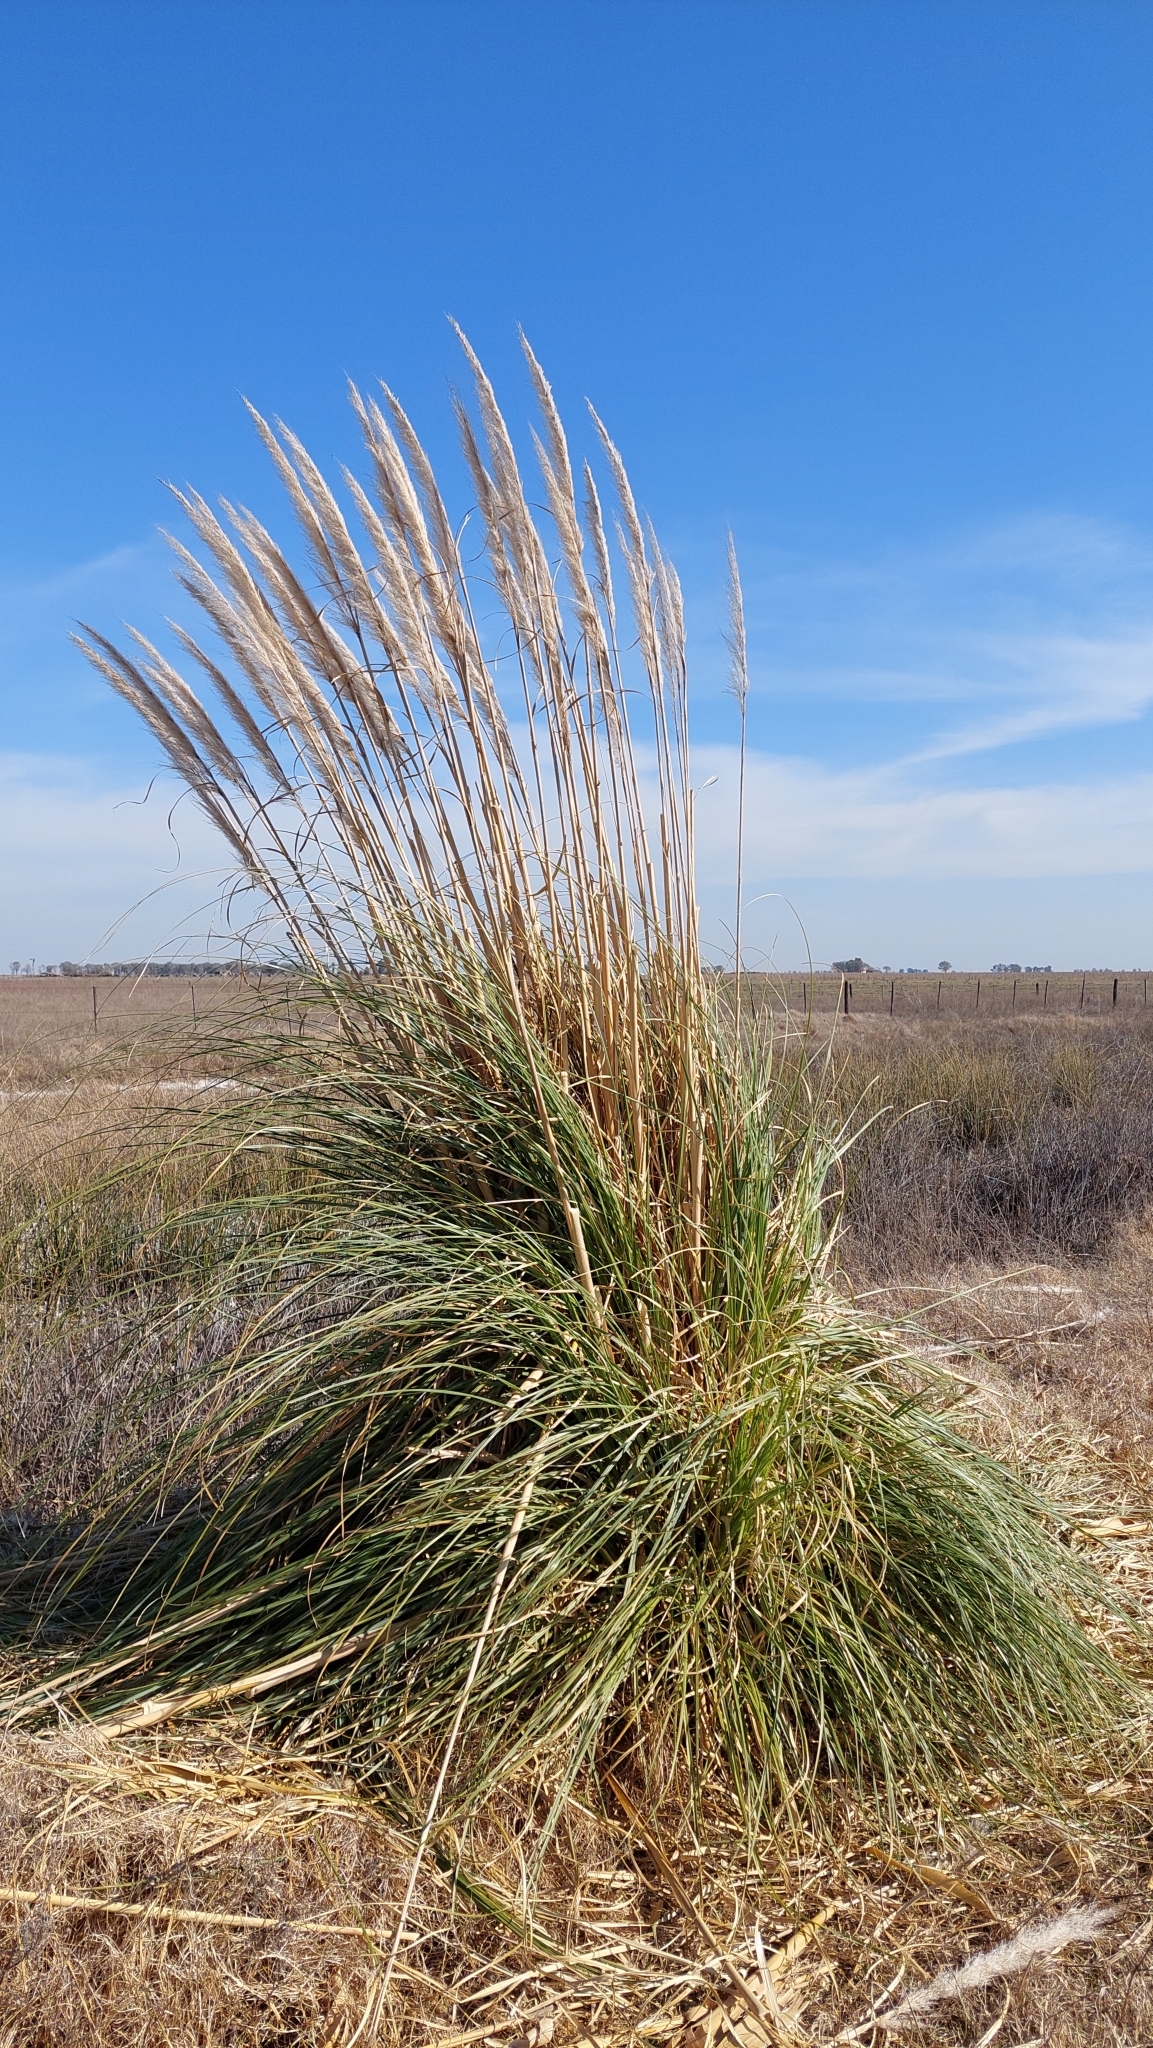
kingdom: Plantae
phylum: Tracheophyta
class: Liliopsida
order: Poales
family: Poaceae
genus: Cortaderia
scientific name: Cortaderia selloana
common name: Uruguayan pampas grass
